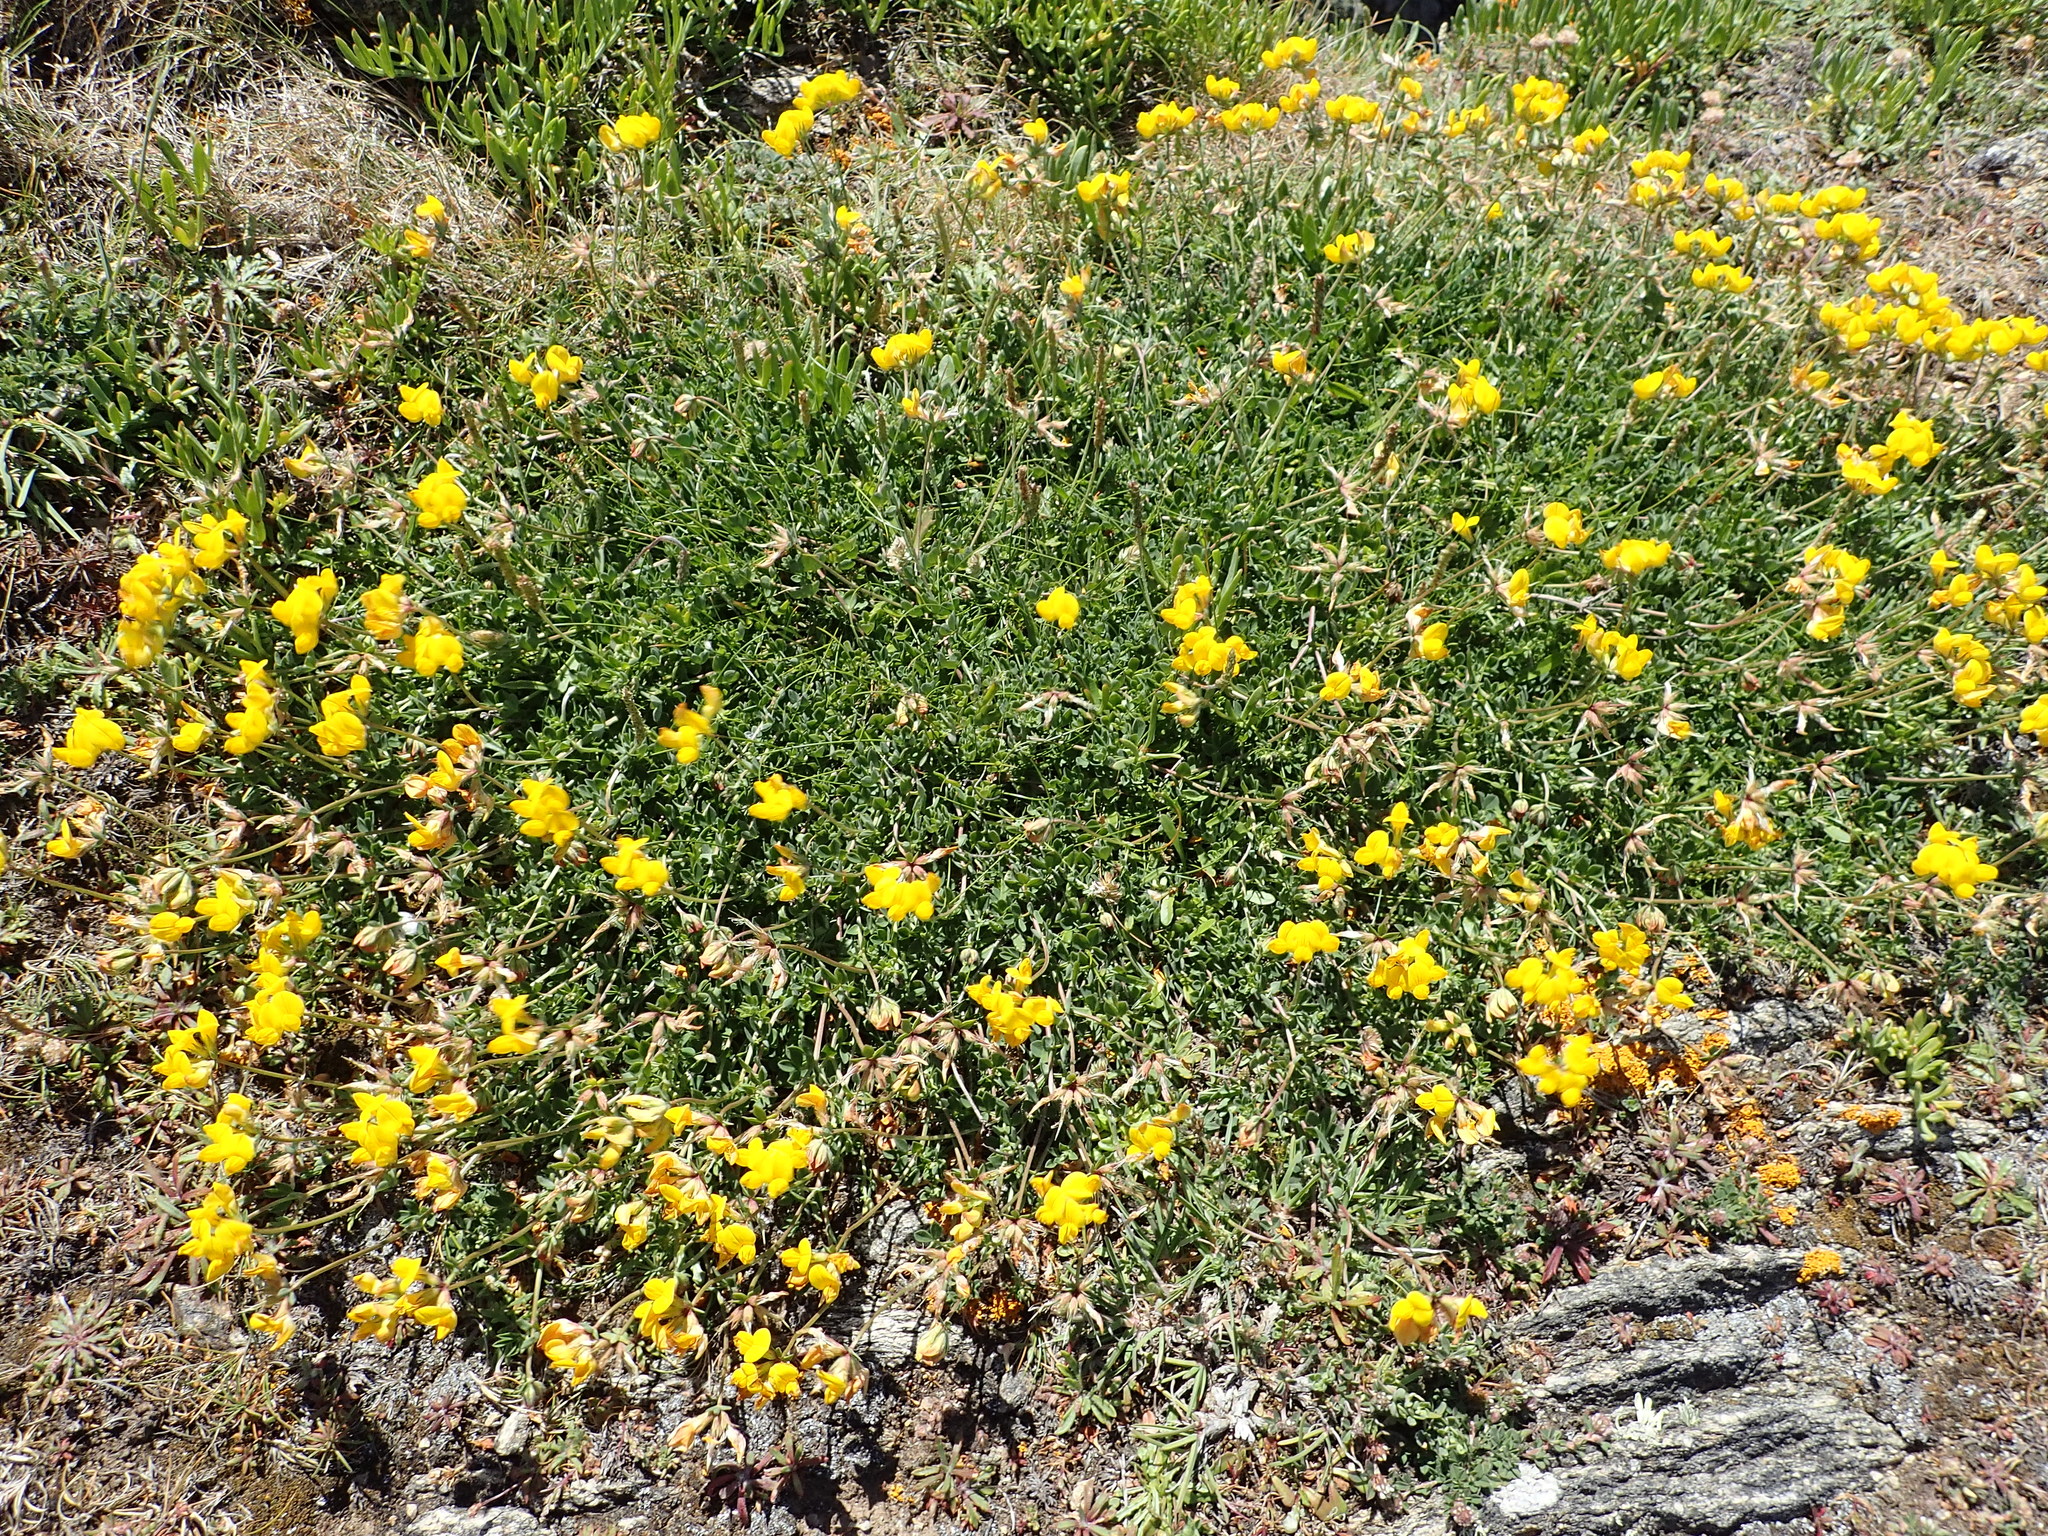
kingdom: Plantae
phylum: Tracheophyta
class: Magnoliopsida
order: Fabales
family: Fabaceae
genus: Lotus
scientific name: Lotus corniculatus
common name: Common bird's-foot-trefoil
